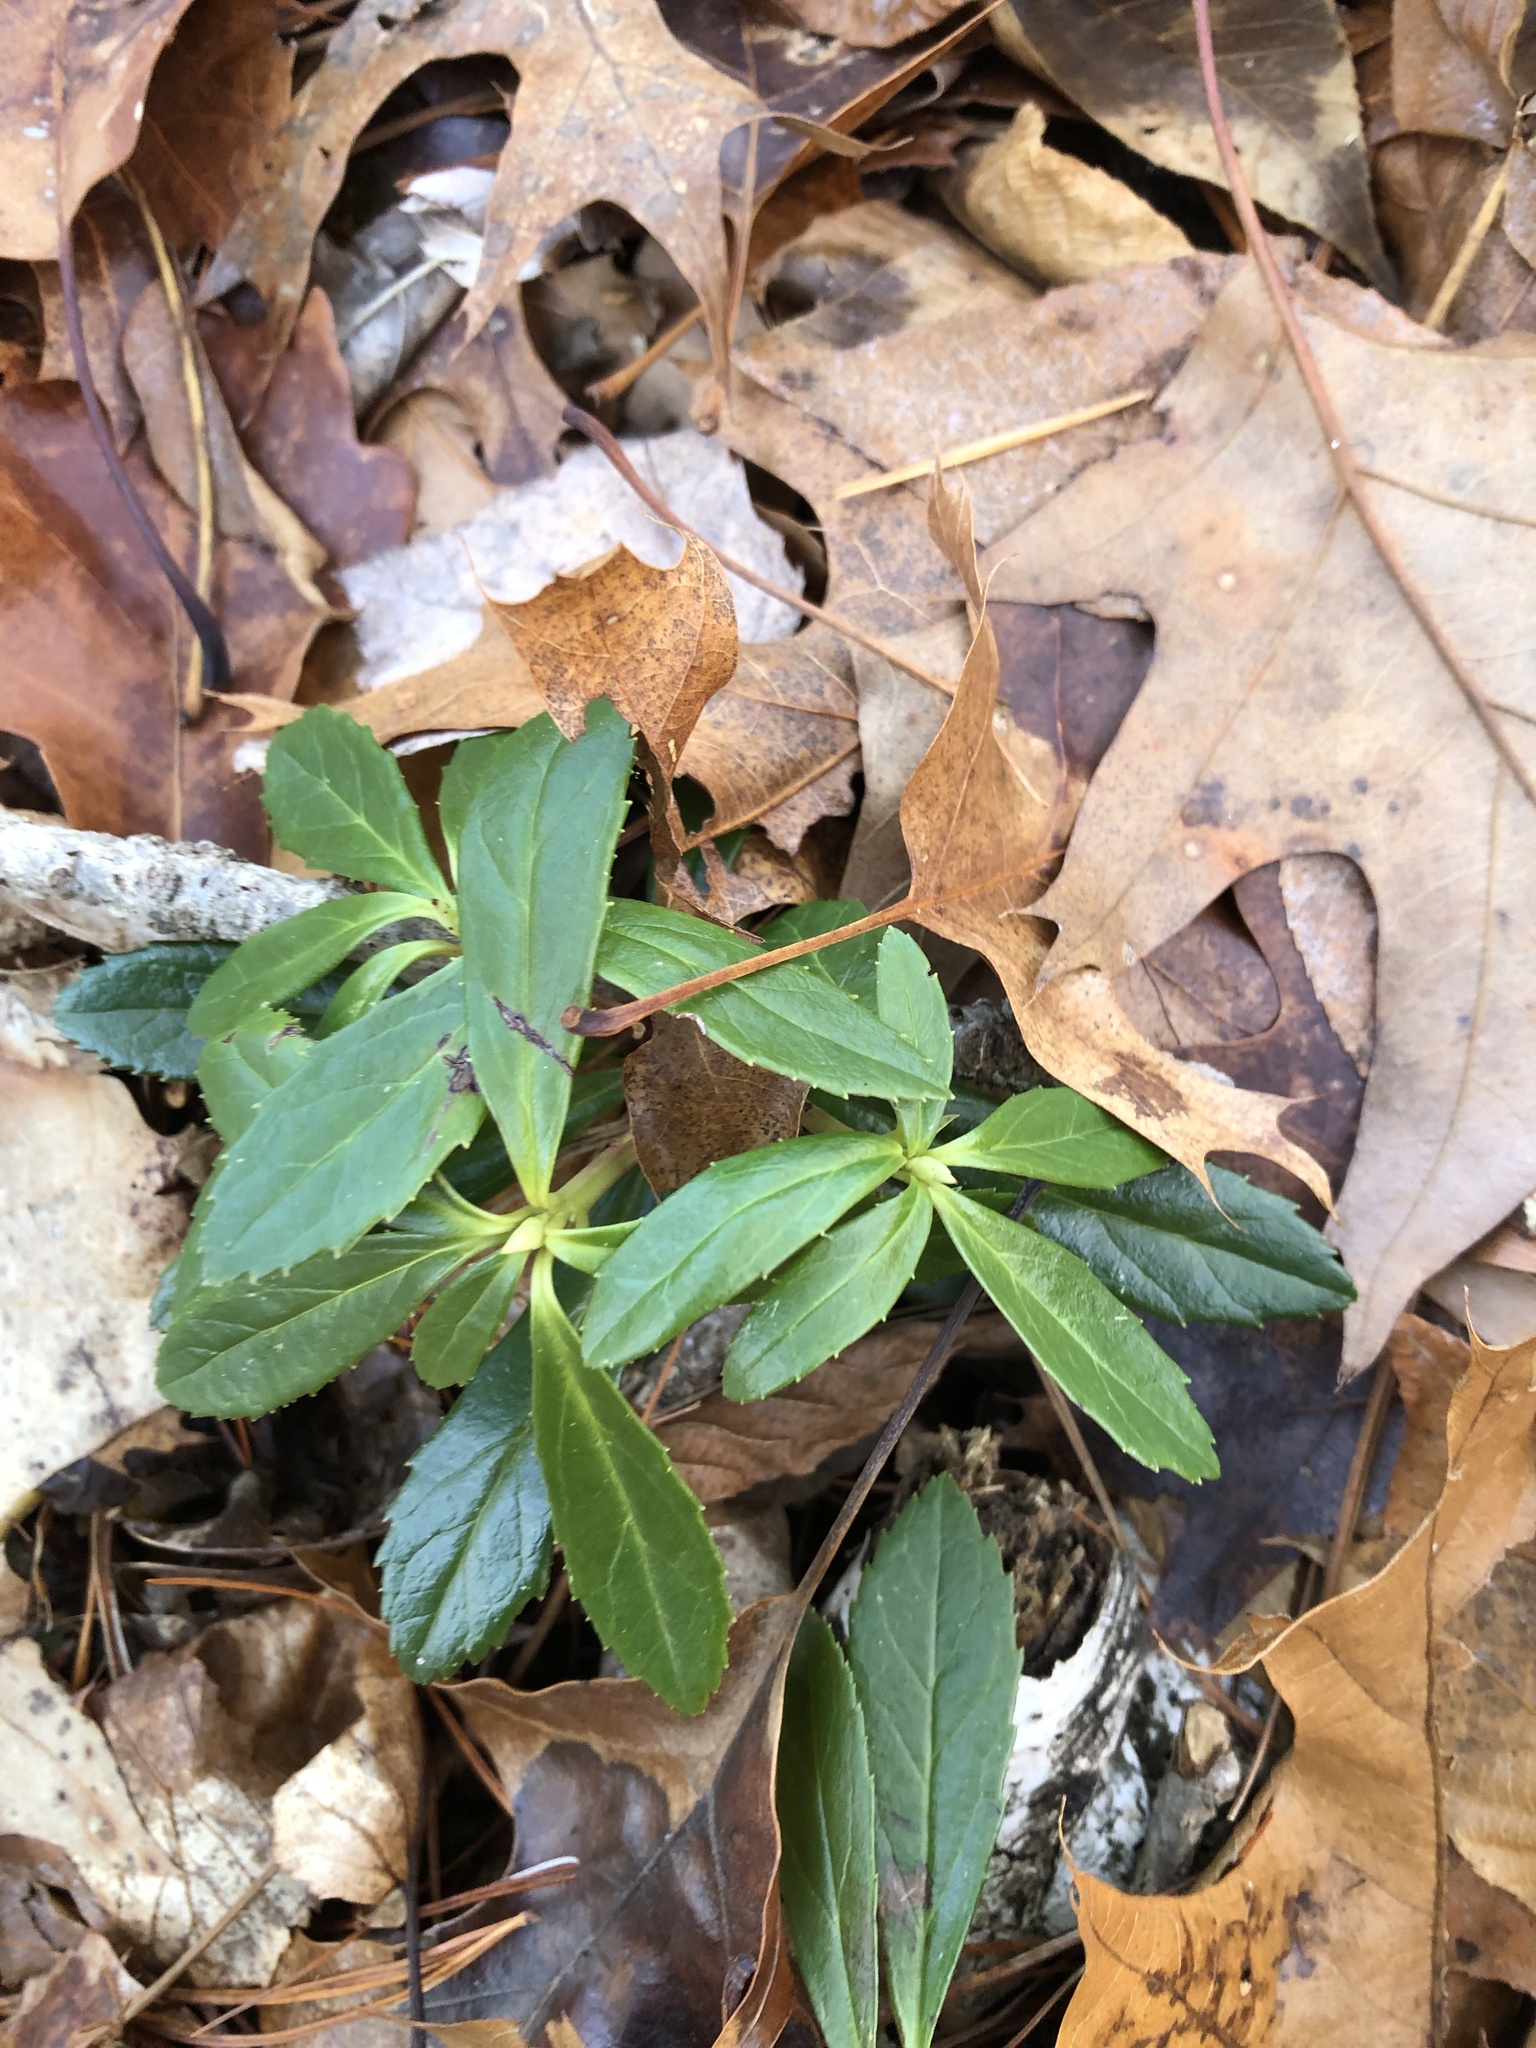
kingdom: Plantae
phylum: Tracheophyta
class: Magnoliopsida
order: Ericales
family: Ericaceae
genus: Chimaphila
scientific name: Chimaphila umbellata
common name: Pipsissewa
